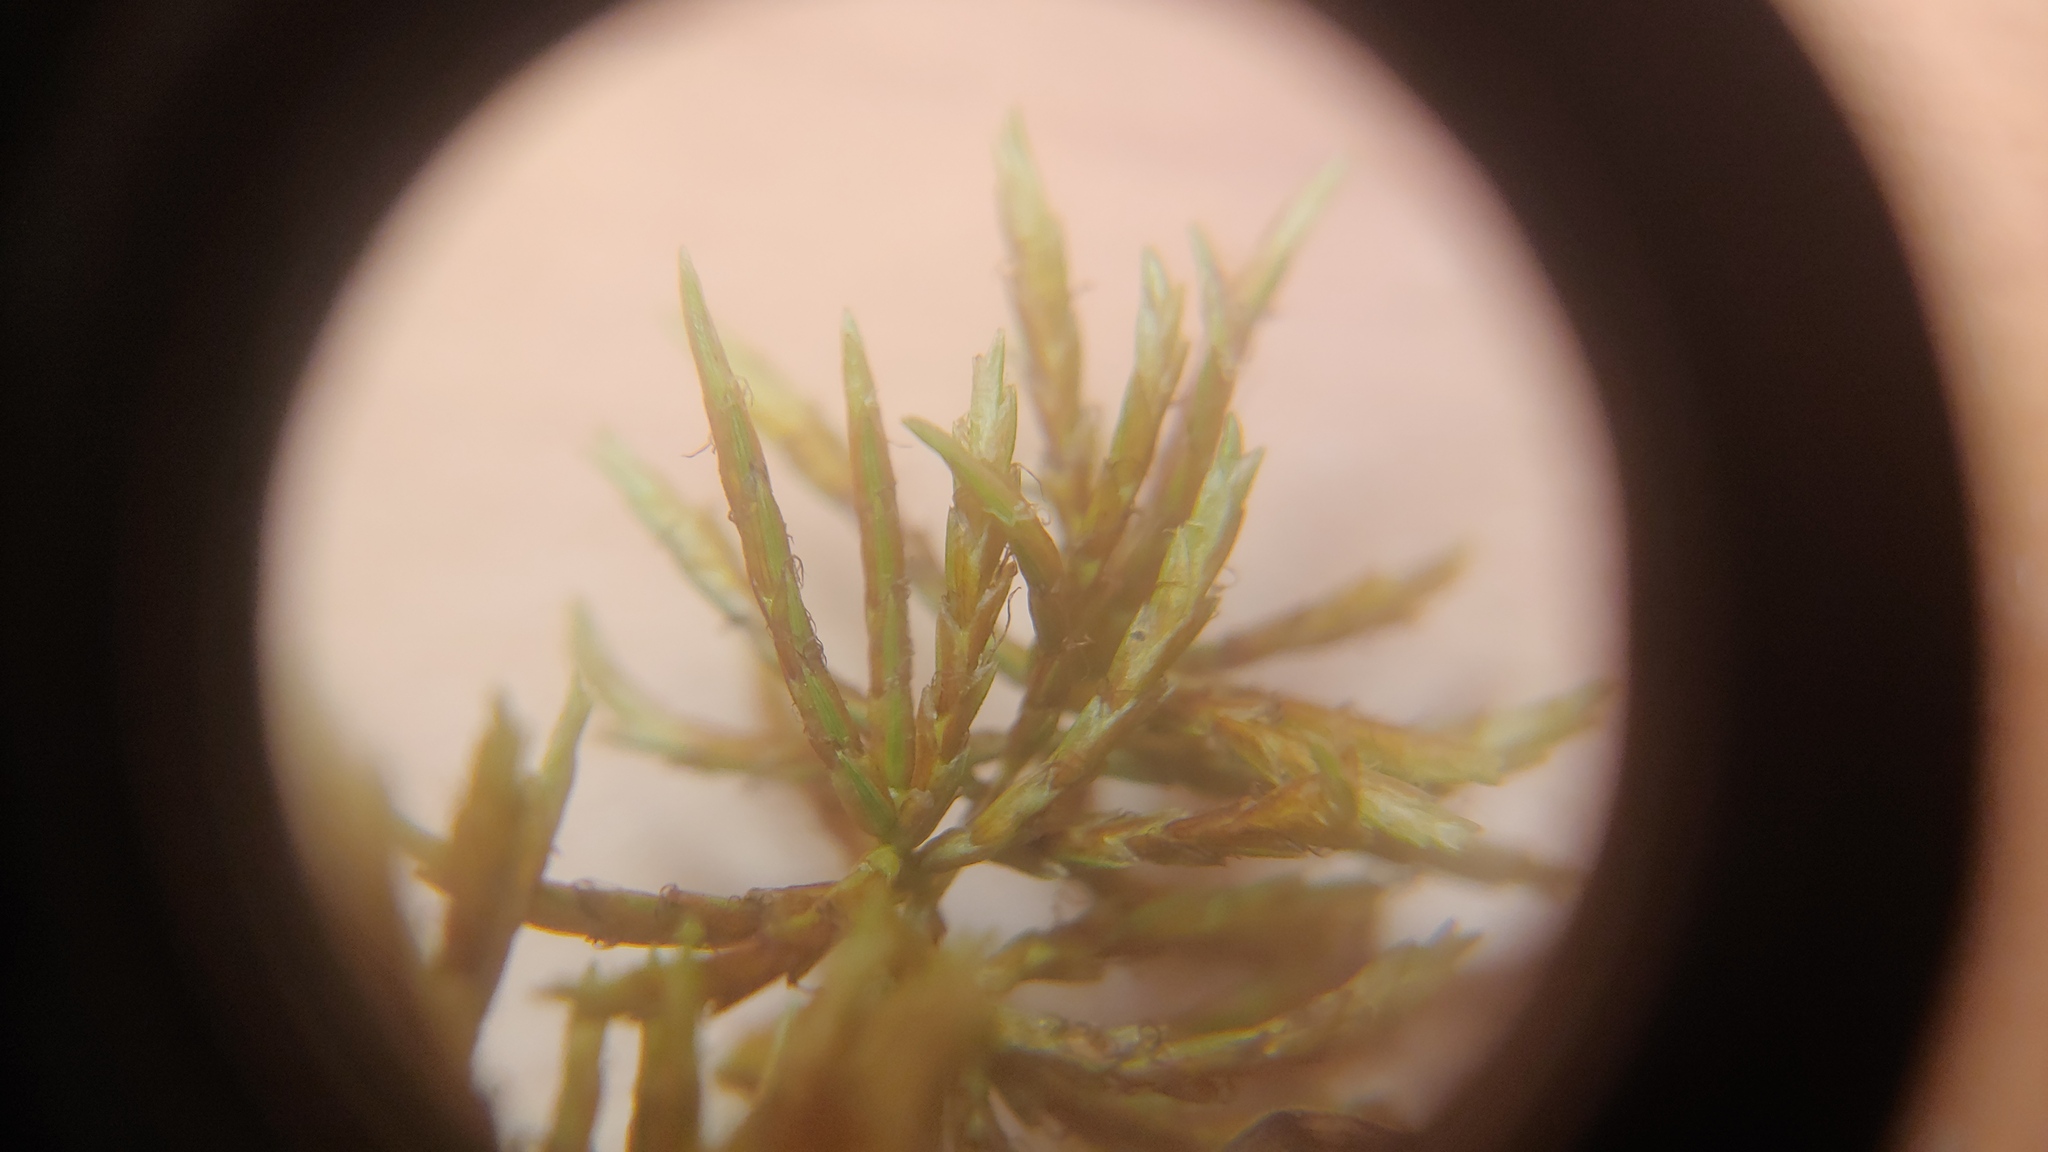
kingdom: Plantae
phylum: Tracheophyta
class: Liliopsida
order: Poales
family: Cyperaceae
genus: Cyperus
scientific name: Cyperus strigosus
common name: False nutsedge
